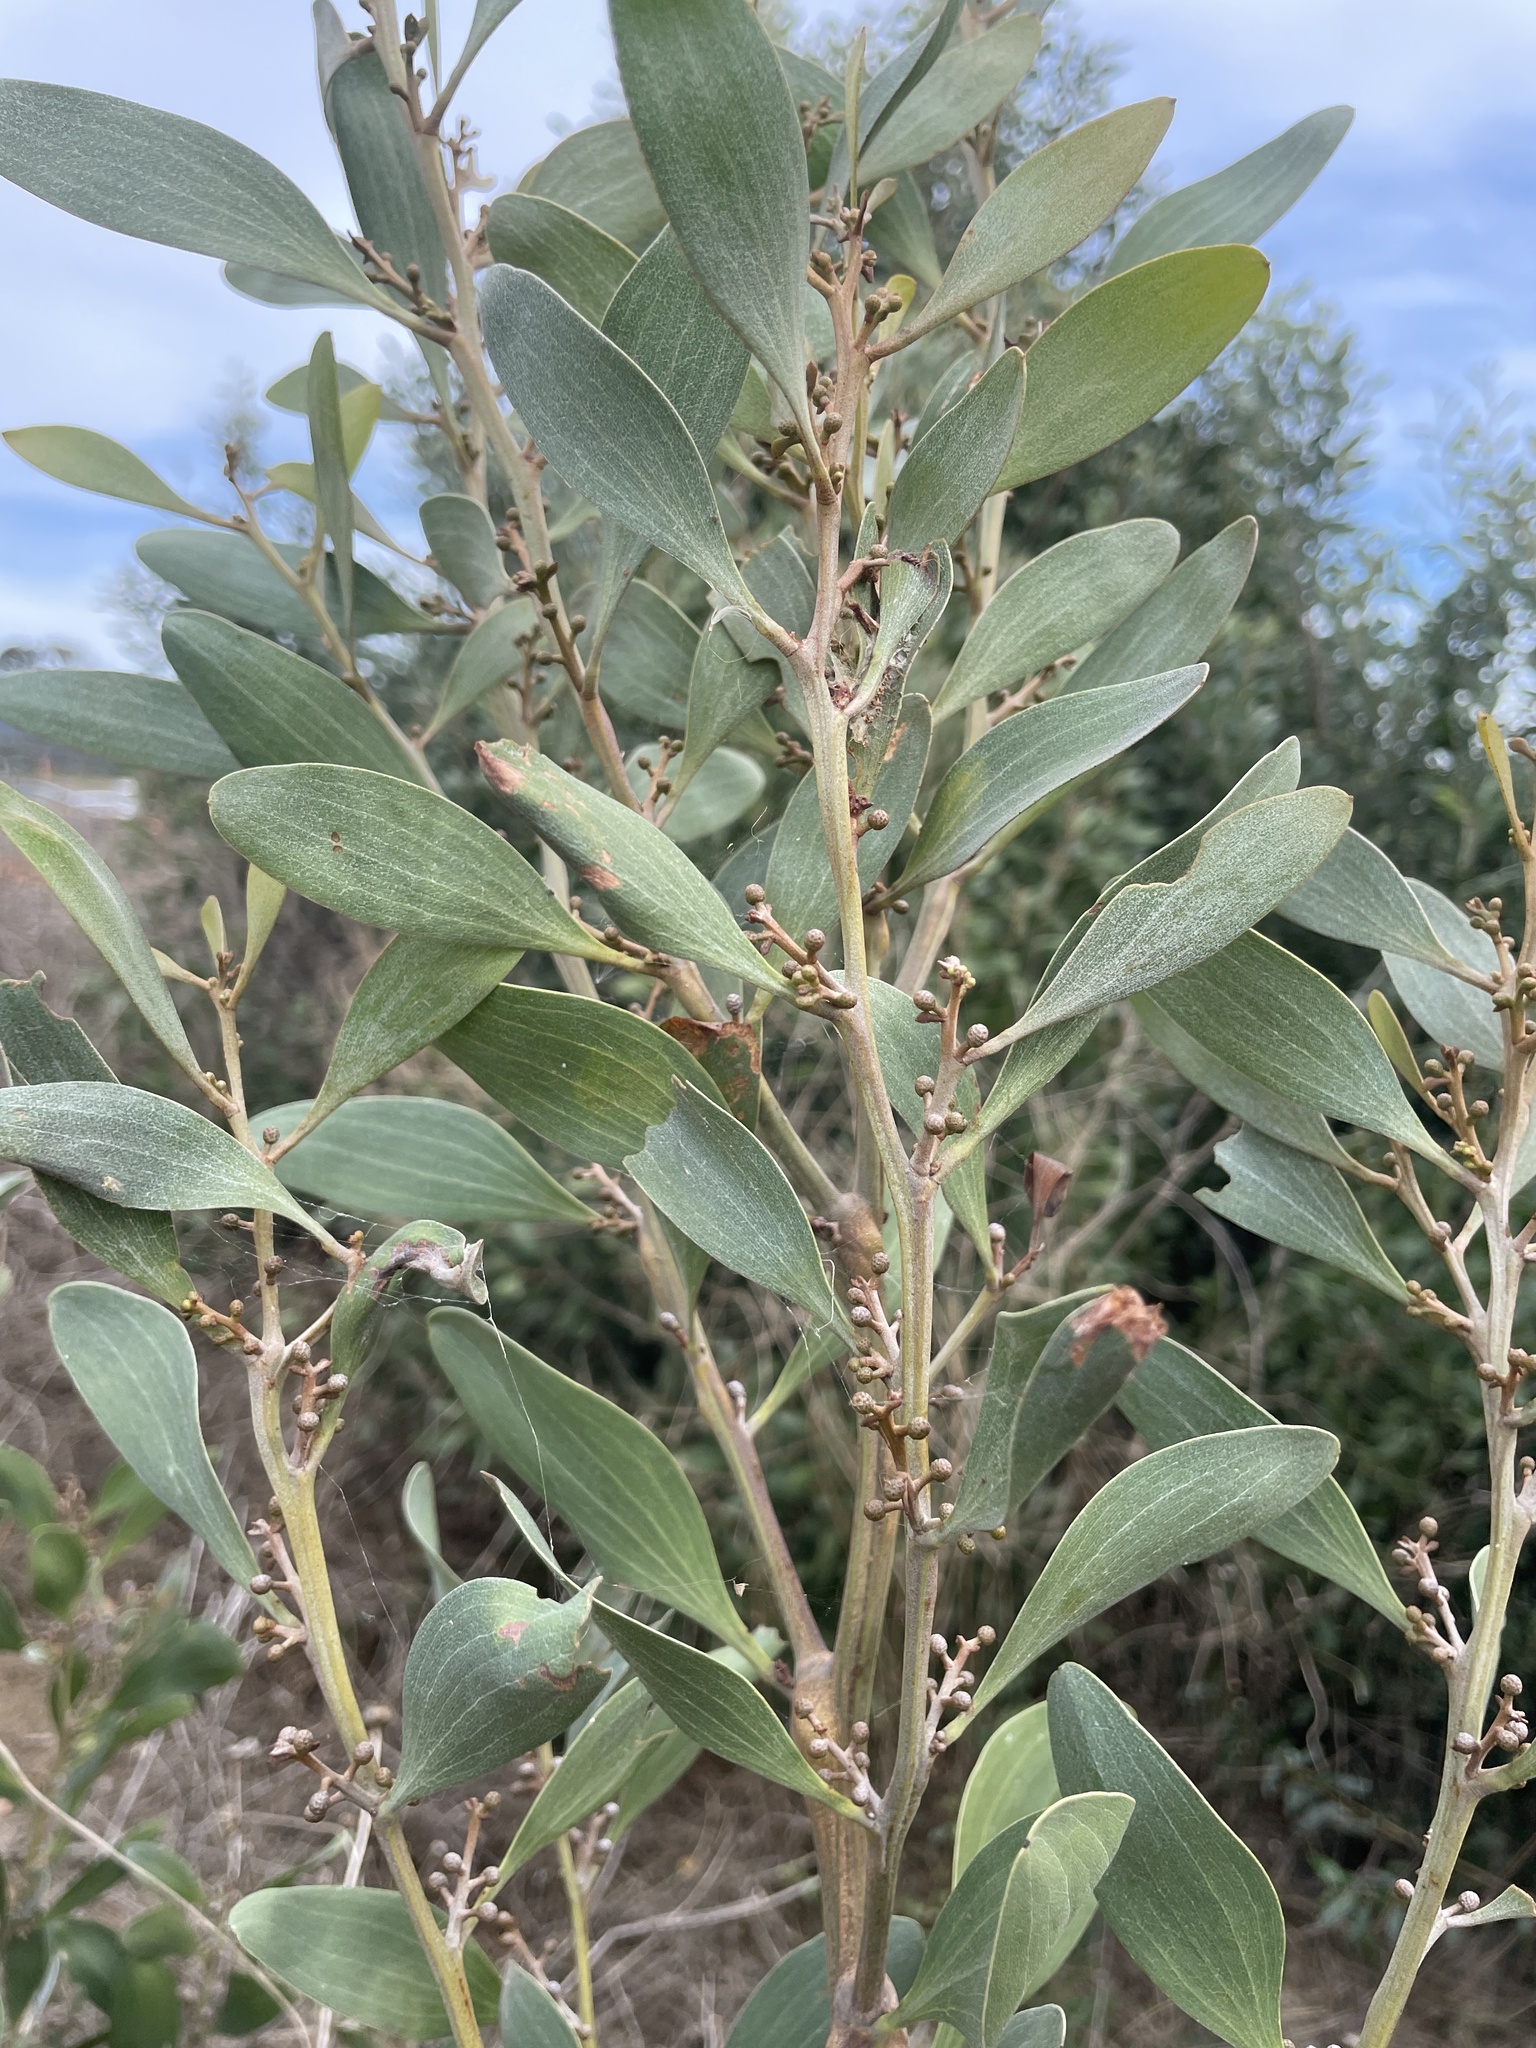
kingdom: Plantae
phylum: Tracheophyta
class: Magnoliopsida
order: Fabales
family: Fabaceae
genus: Acacia
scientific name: Acacia melanoxylon
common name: Blackwood
